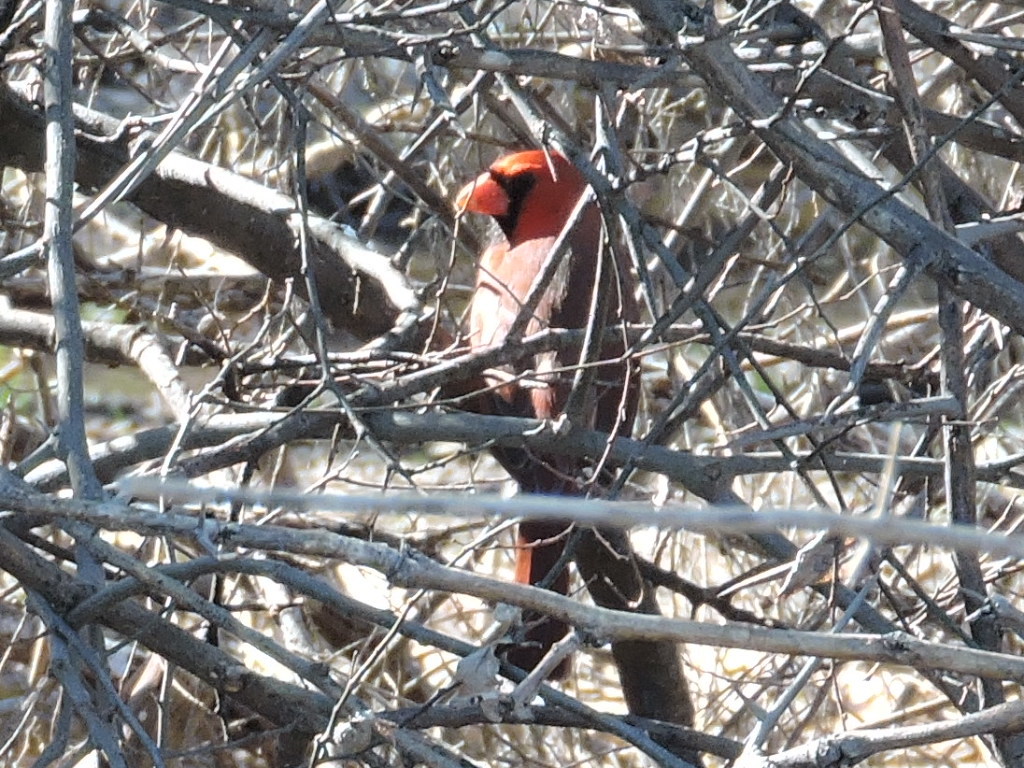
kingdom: Animalia
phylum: Chordata
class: Aves
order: Passeriformes
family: Cardinalidae
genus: Cardinalis
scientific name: Cardinalis cardinalis
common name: Northern cardinal
